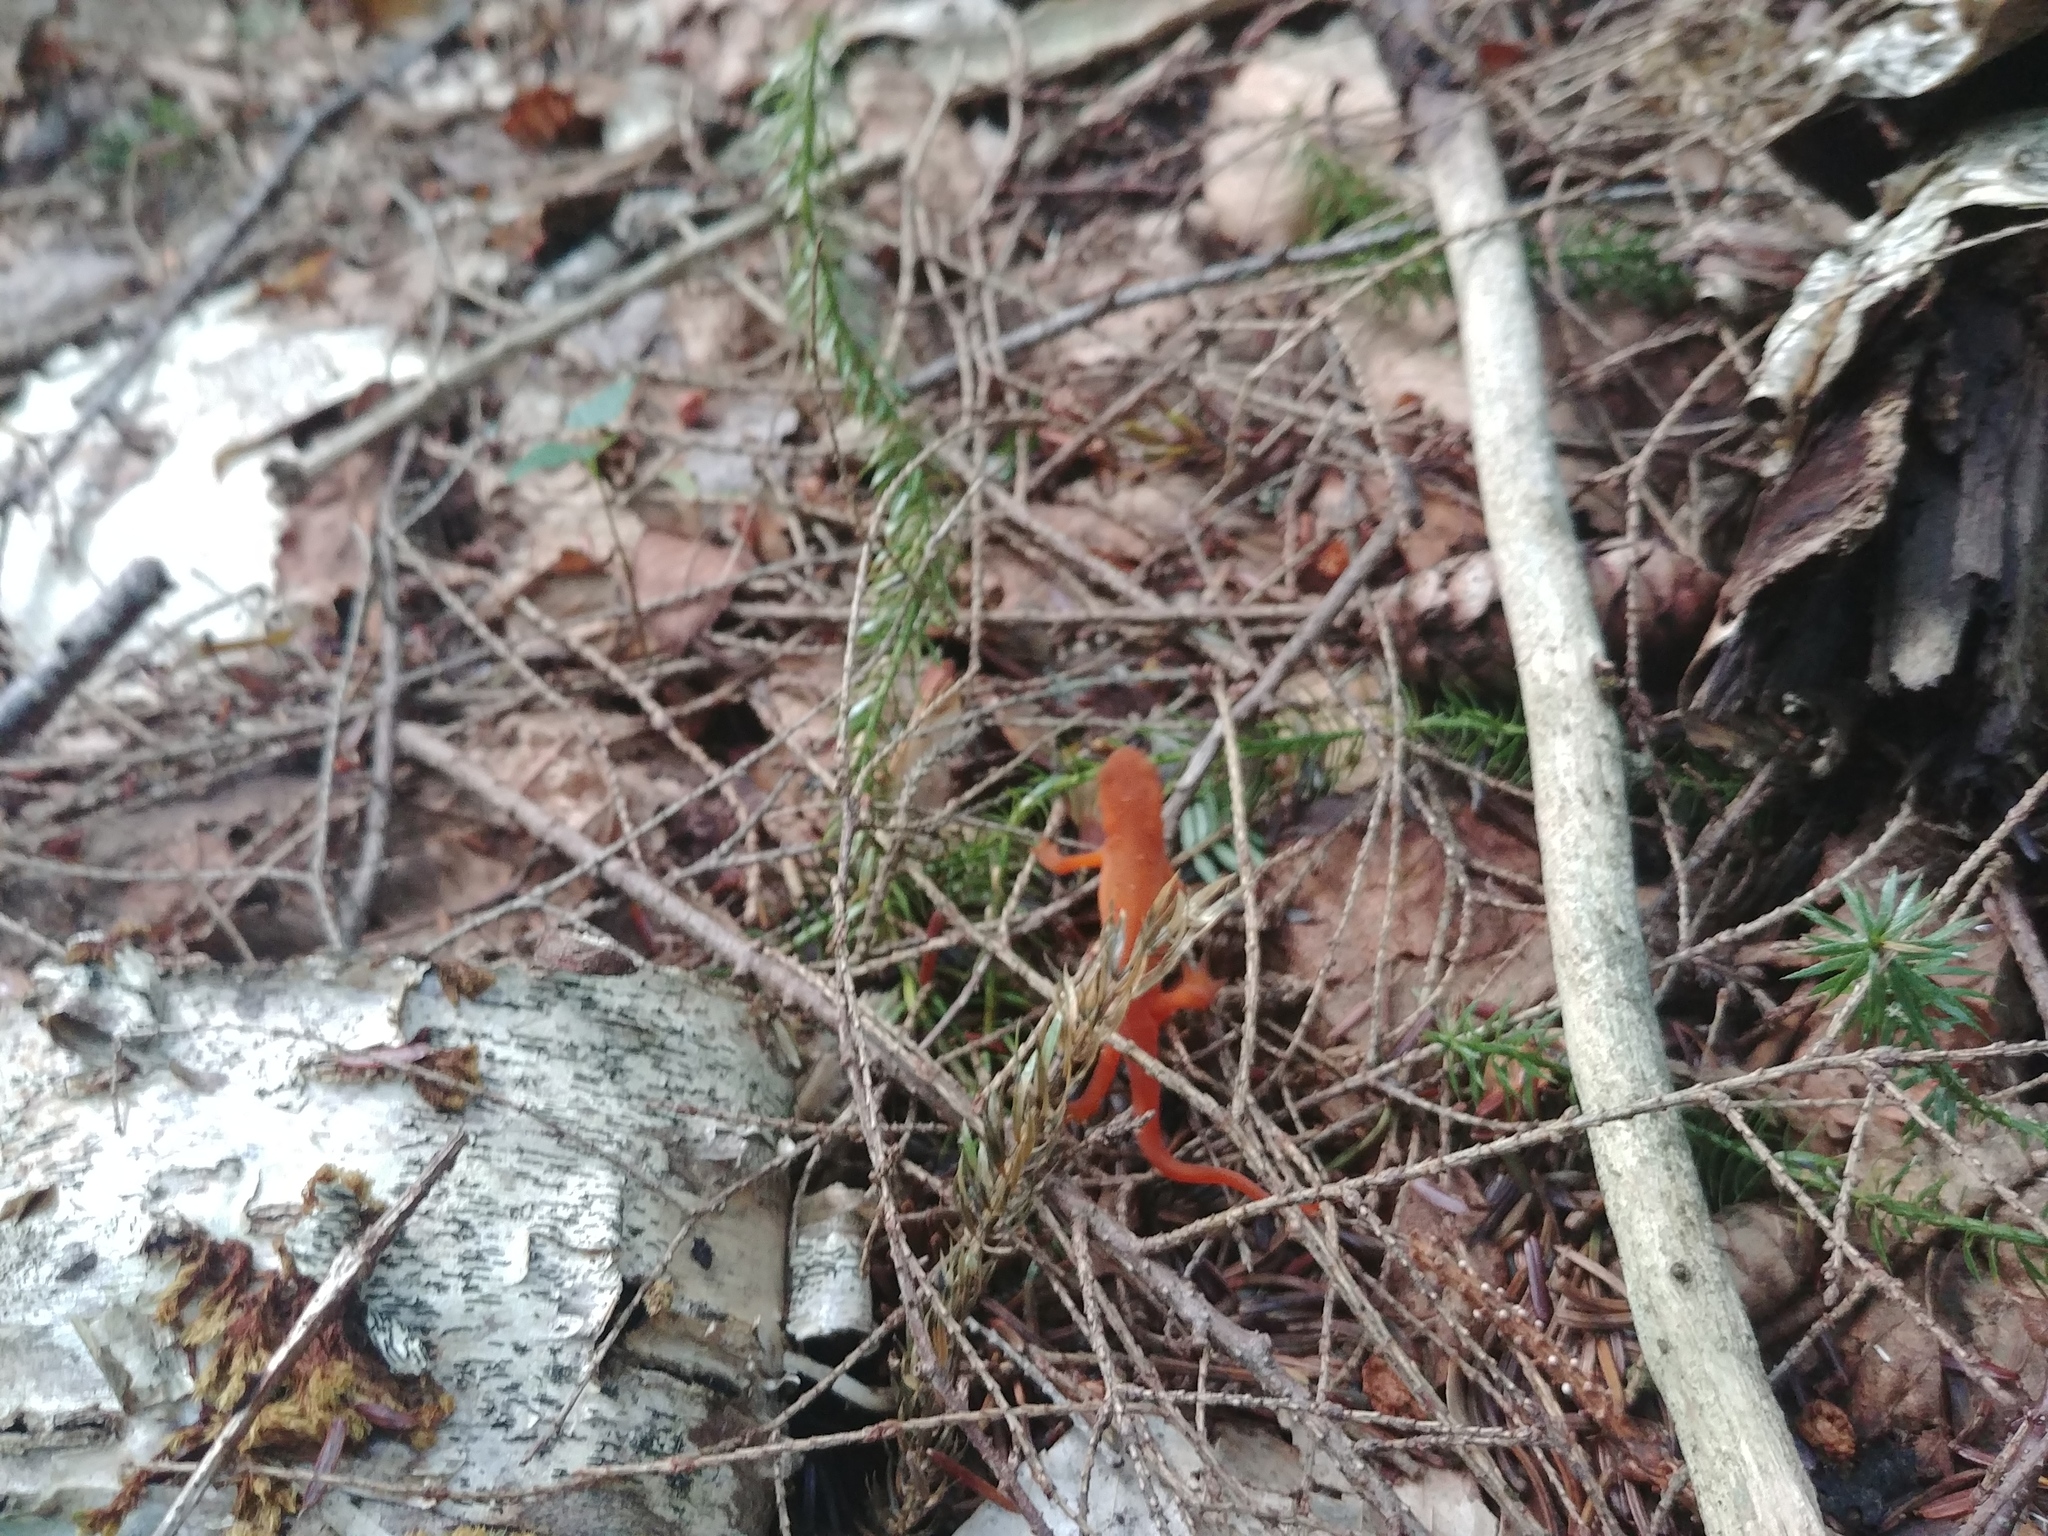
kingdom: Animalia
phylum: Chordata
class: Amphibia
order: Caudata
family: Salamandridae
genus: Notophthalmus
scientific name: Notophthalmus viridescens
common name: Eastern newt
